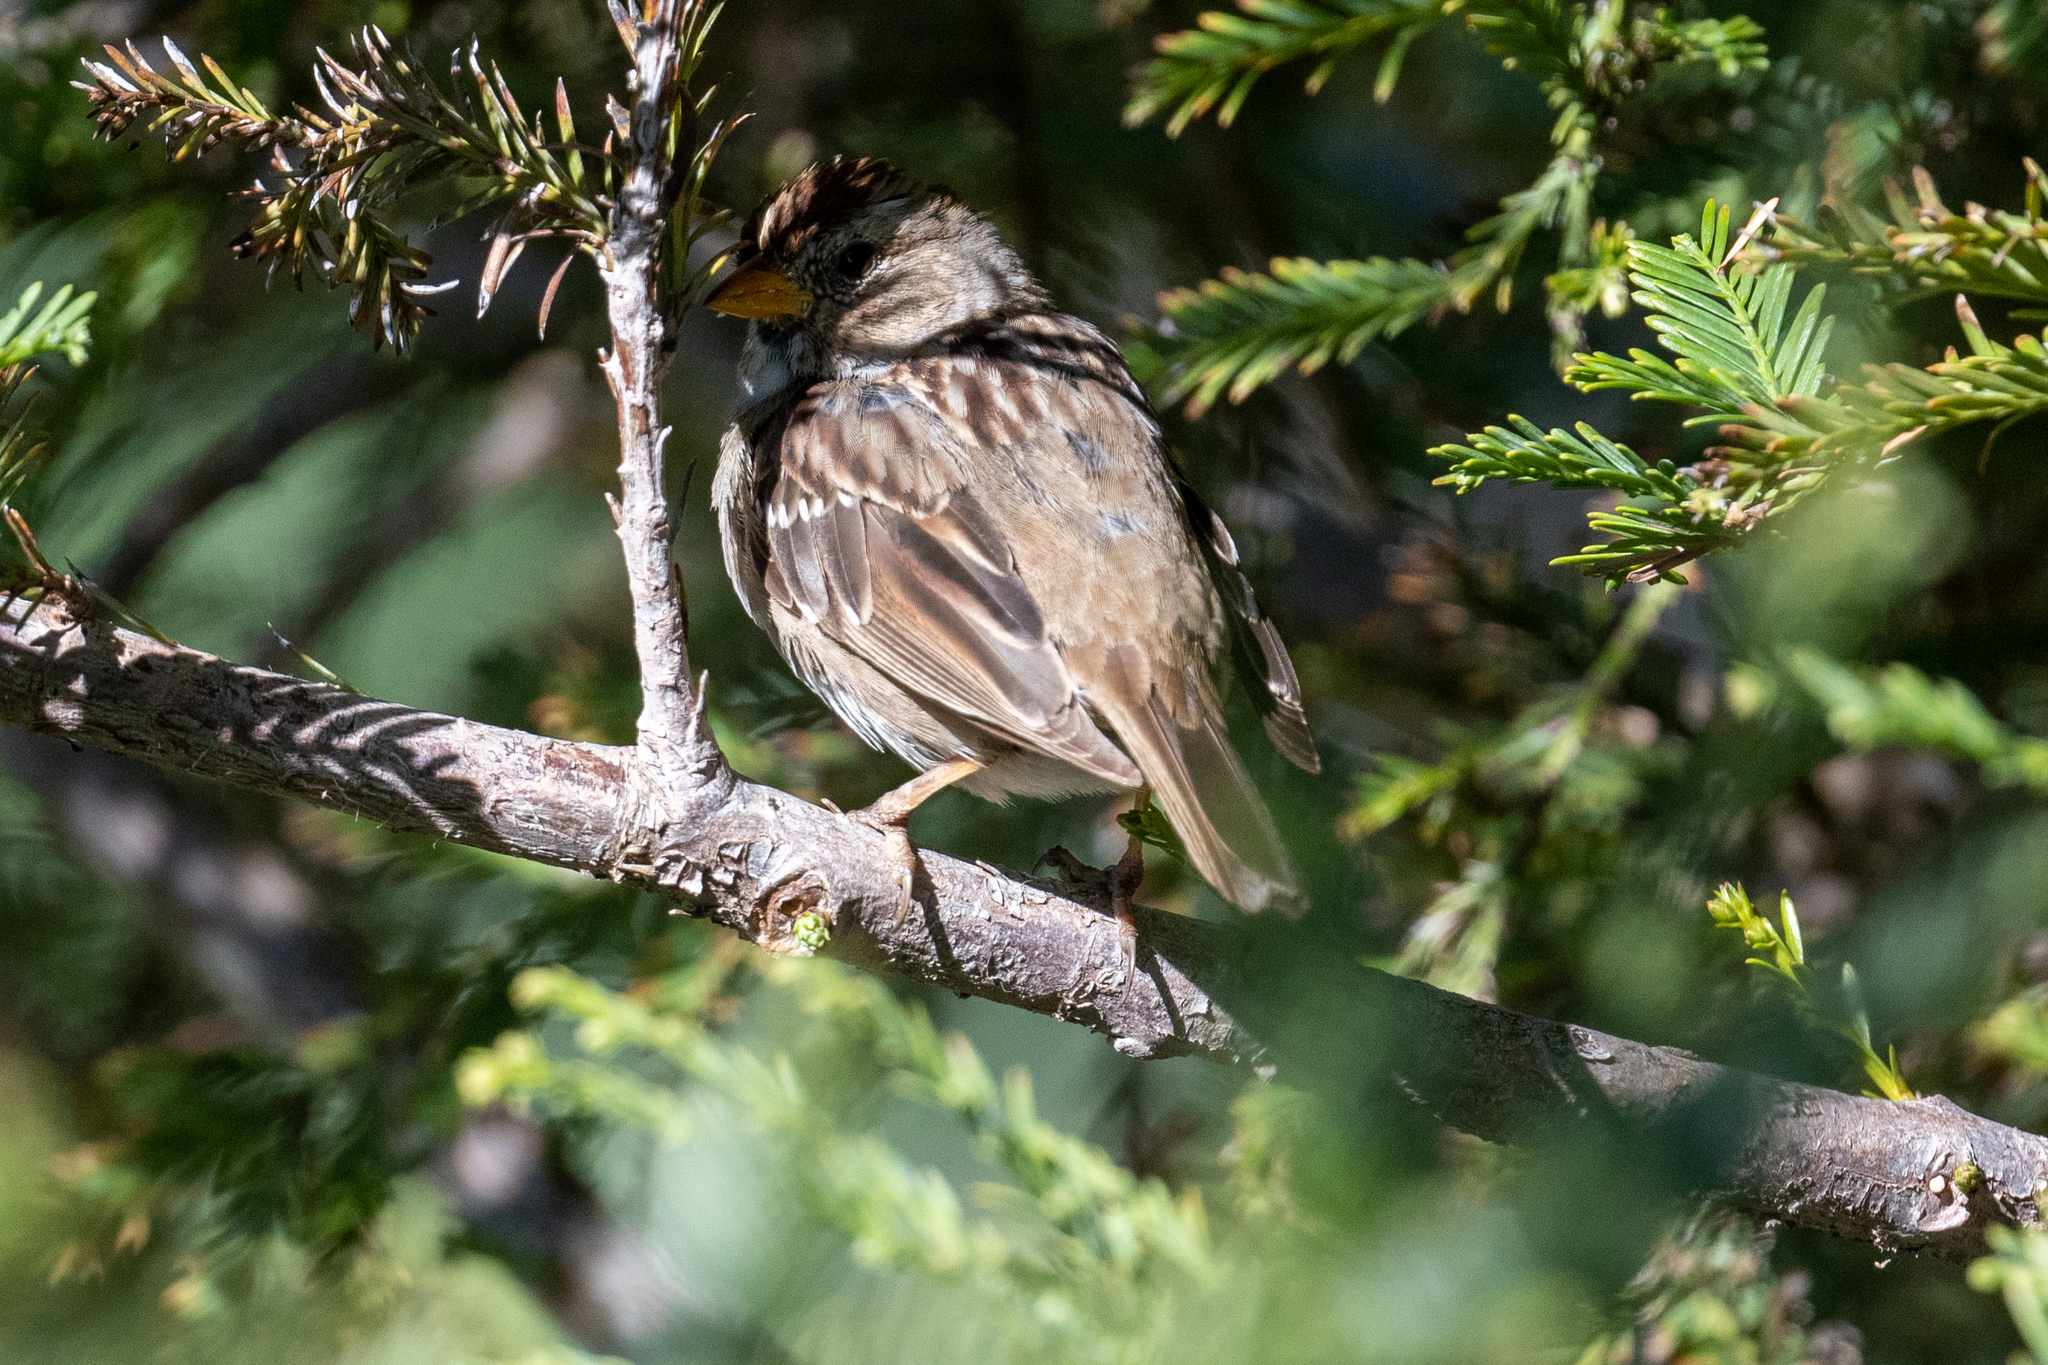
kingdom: Animalia
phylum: Chordata
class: Aves
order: Passeriformes
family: Passerellidae
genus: Zonotrichia
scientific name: Zonotrichia leucophrys
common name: White-crowned sparrow
